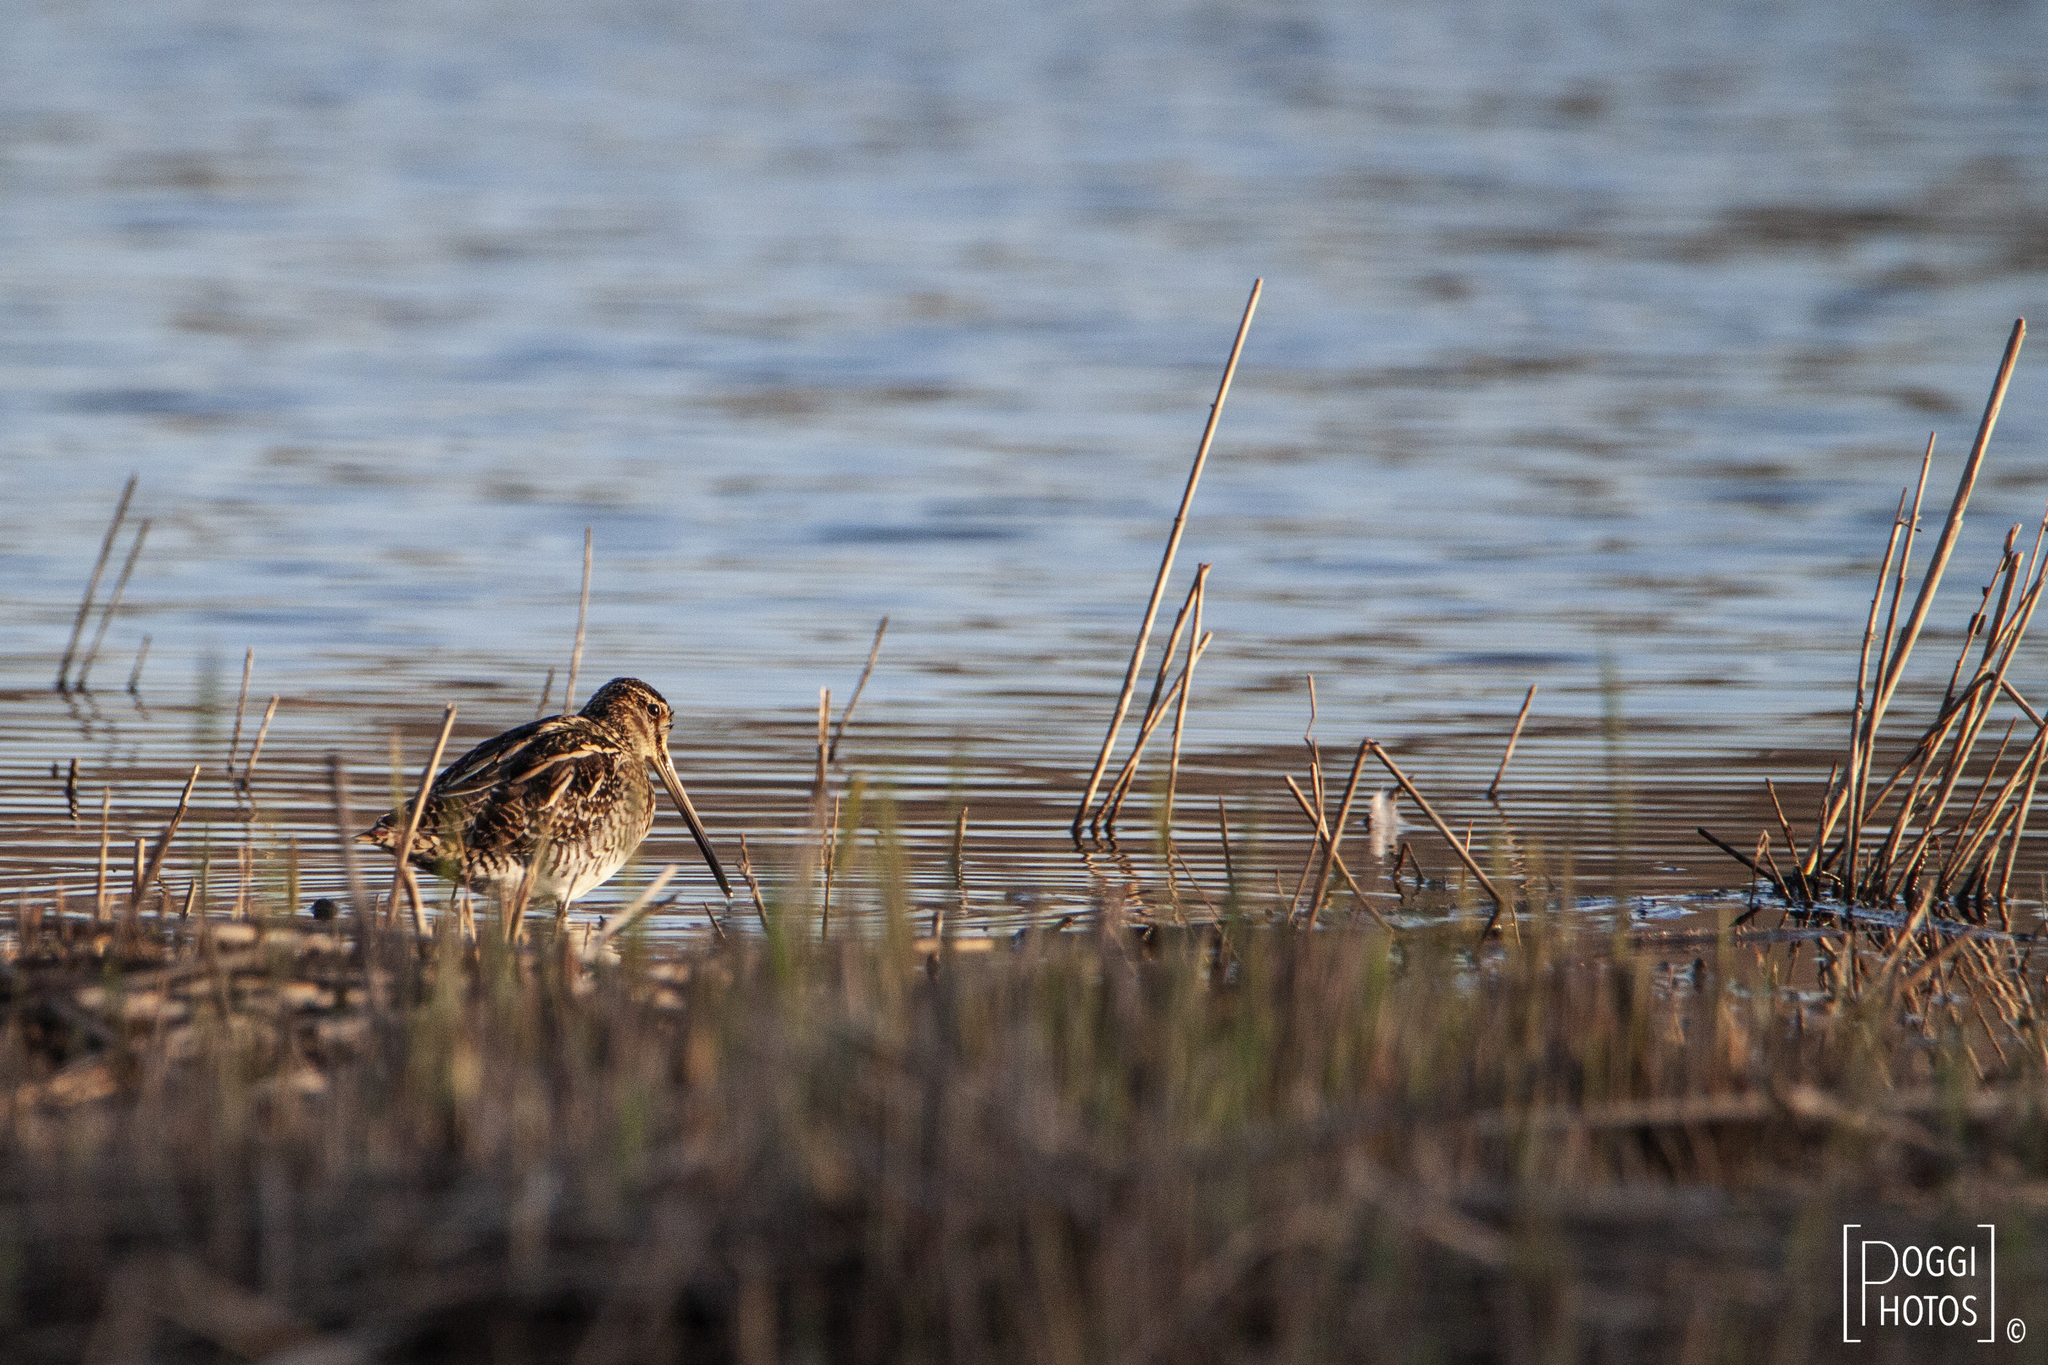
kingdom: Animalia
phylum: Chordata
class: Aves
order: Charadriiformes
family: Scolopacidae
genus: Gallinago
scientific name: Gallinago gallinago
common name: Common snipe
